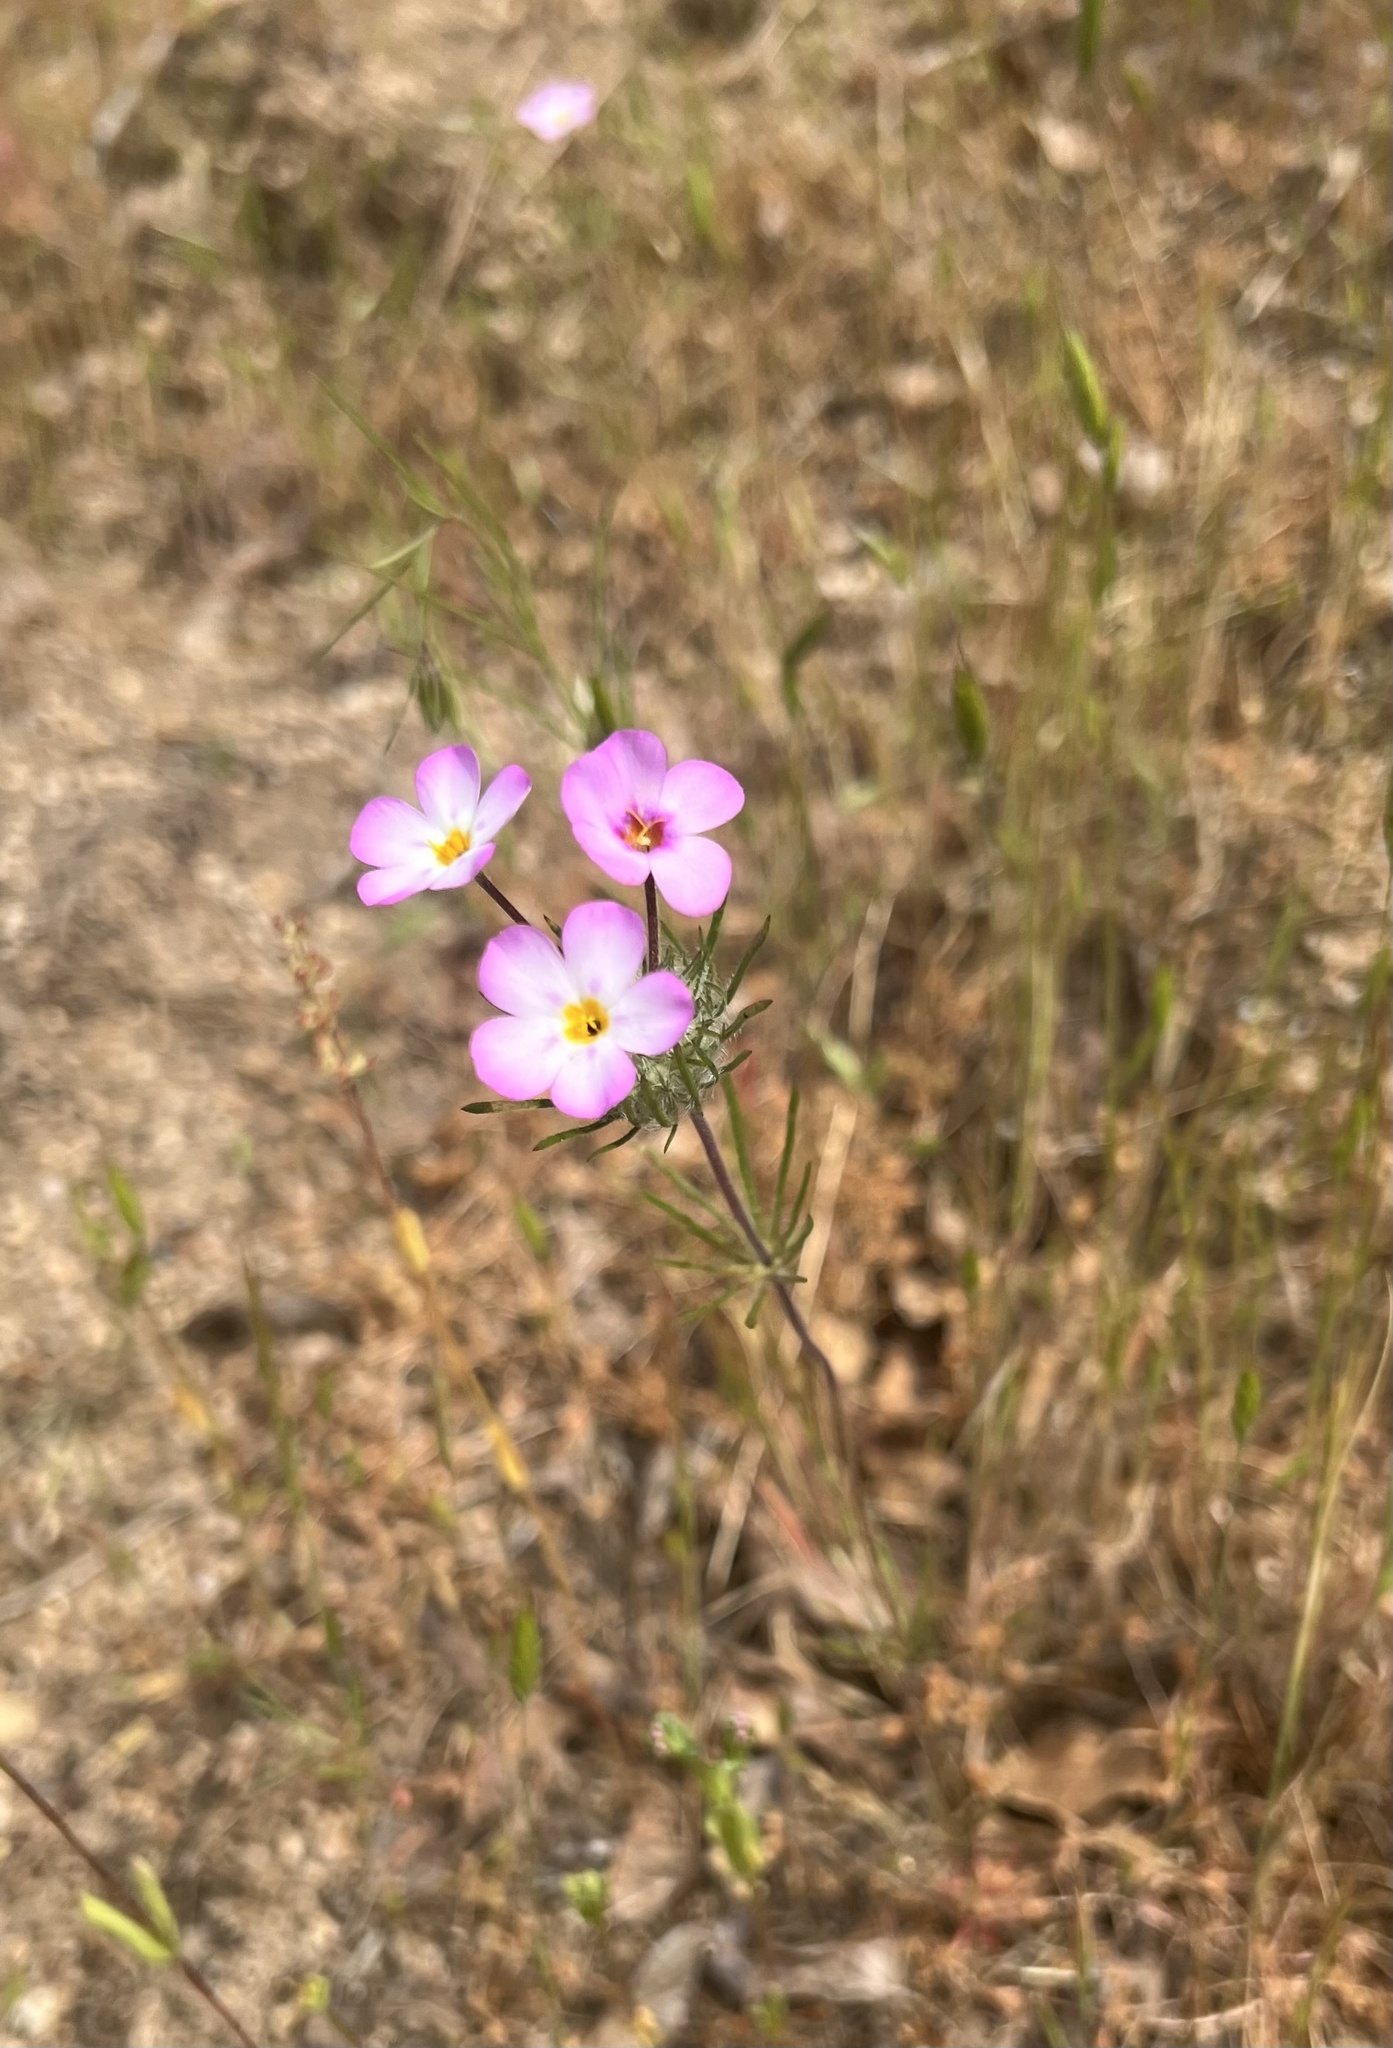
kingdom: Plantae
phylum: Tracheophyta
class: Magnoliopsida
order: Ericales
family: Polemoniaceae
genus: Leptosiphon
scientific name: Leptosiphon montanus
